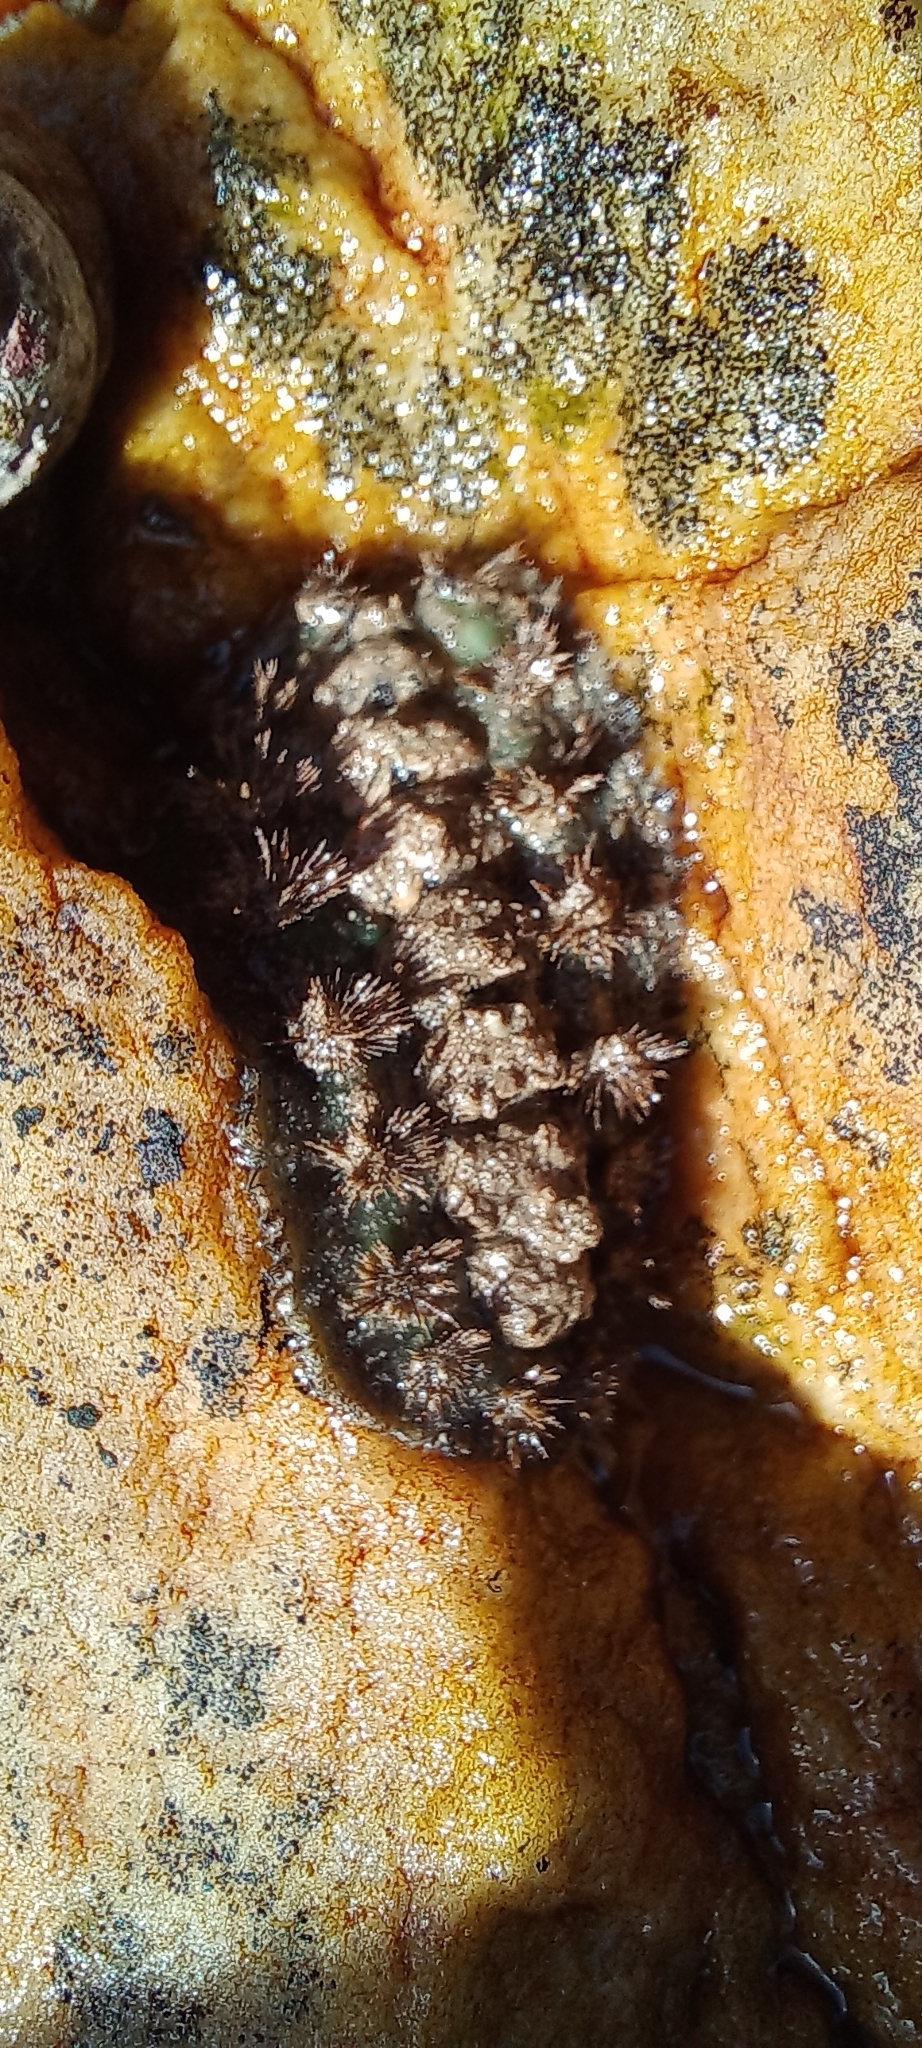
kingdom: Animalia
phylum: Mollusca
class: Polyplacophora
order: Chitonida
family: Acanthochitonidae
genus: Acanthochitona
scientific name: Acanthochitona garnoti
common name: Spiny chiton
